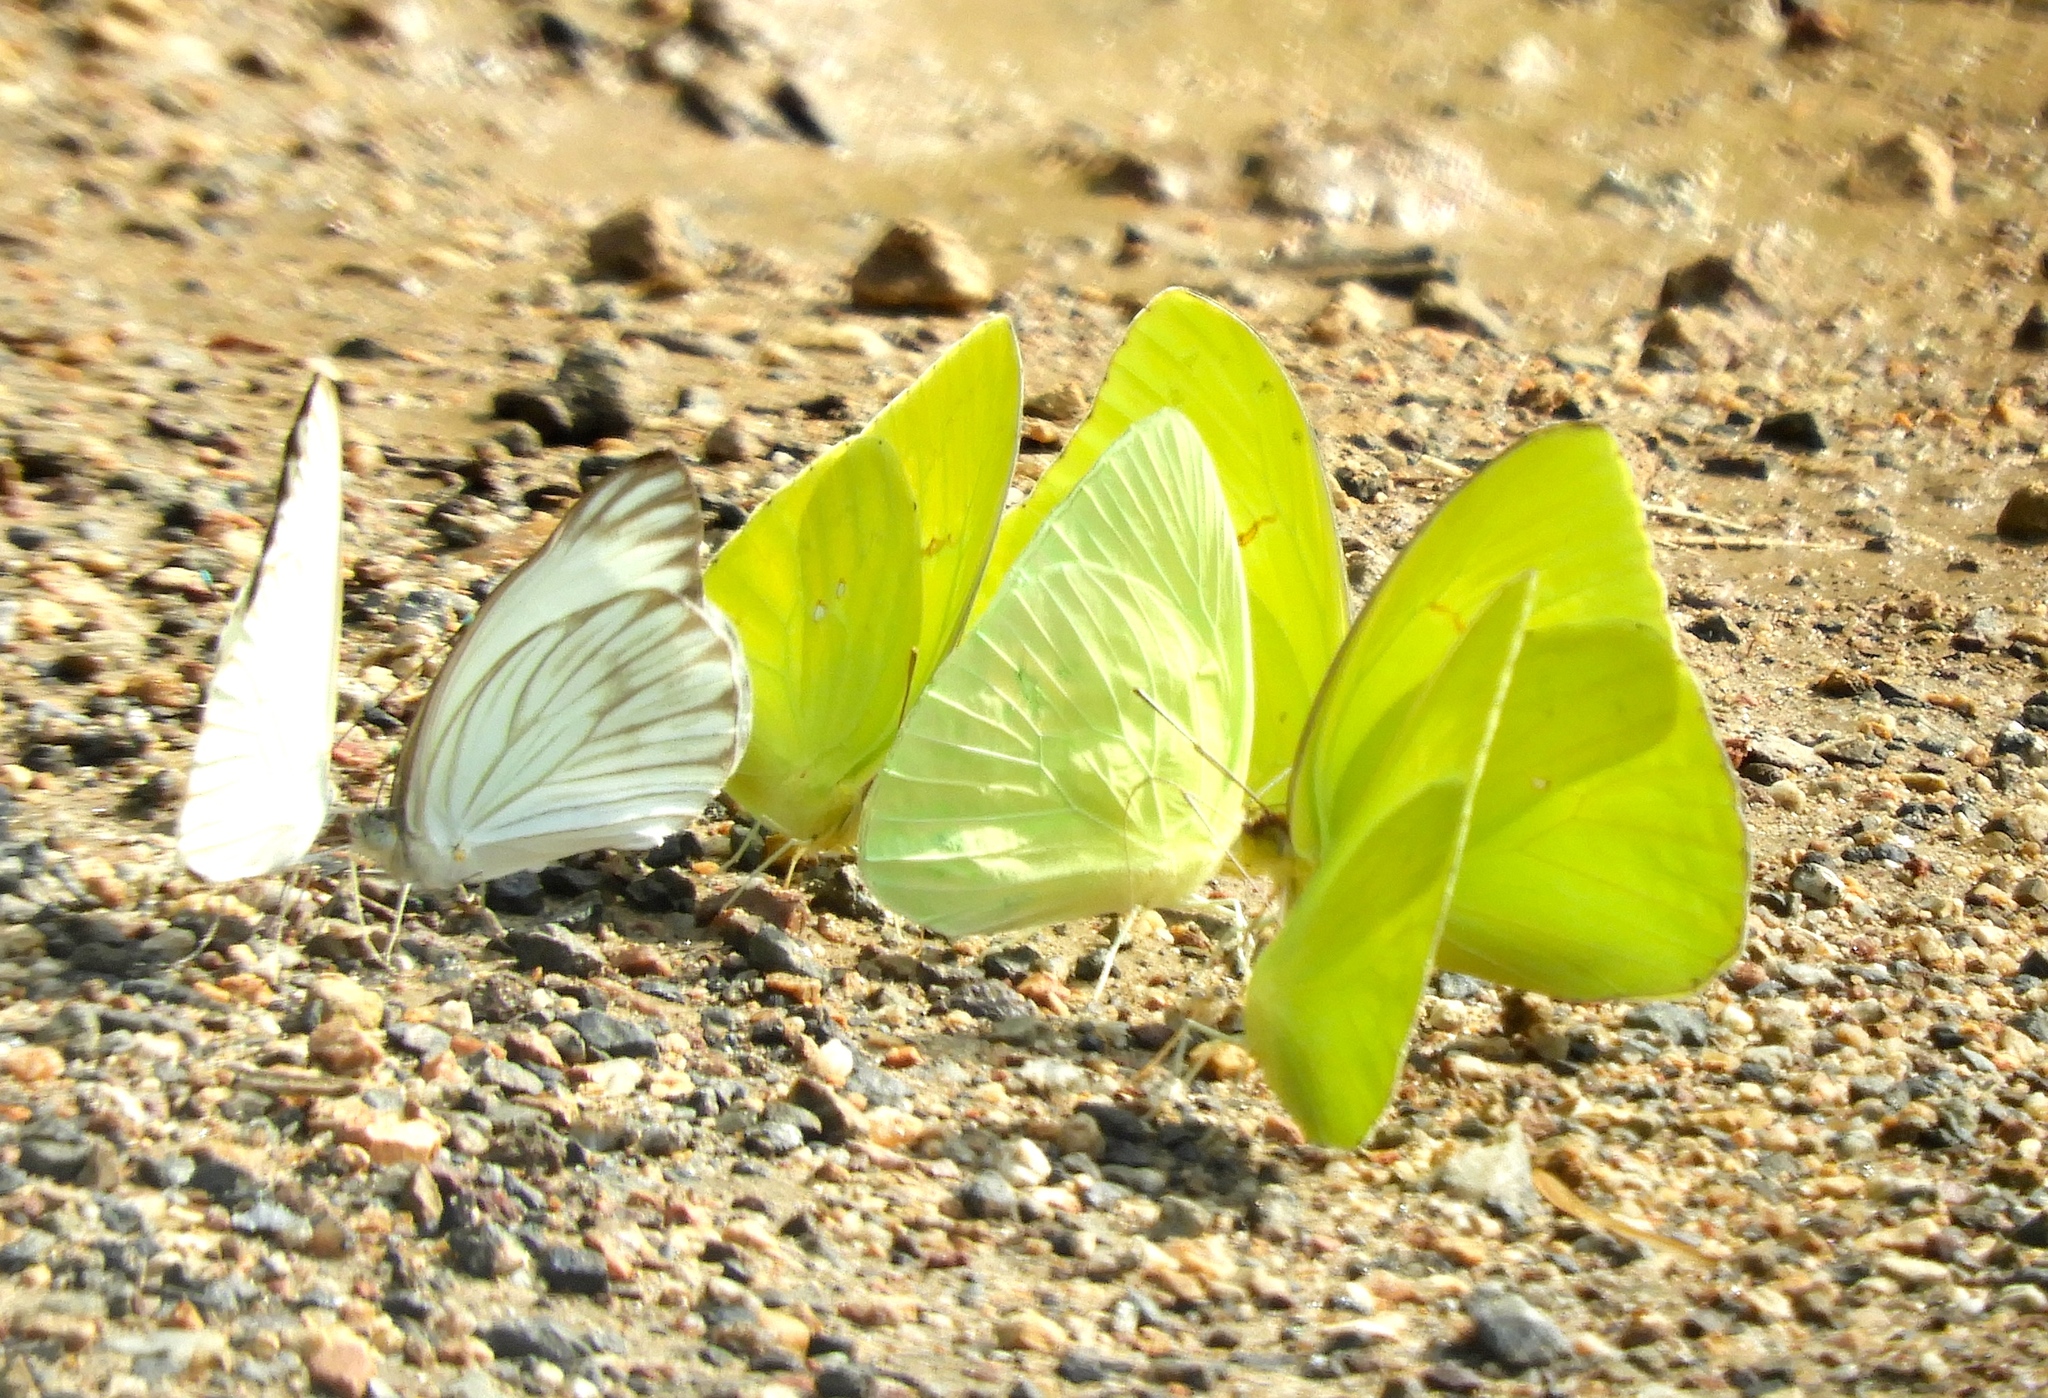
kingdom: Animalia
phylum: Arthropoda
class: Insecta
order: Lepidoptera
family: Pieridae
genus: Phoebis
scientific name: Phoebis marcellina
